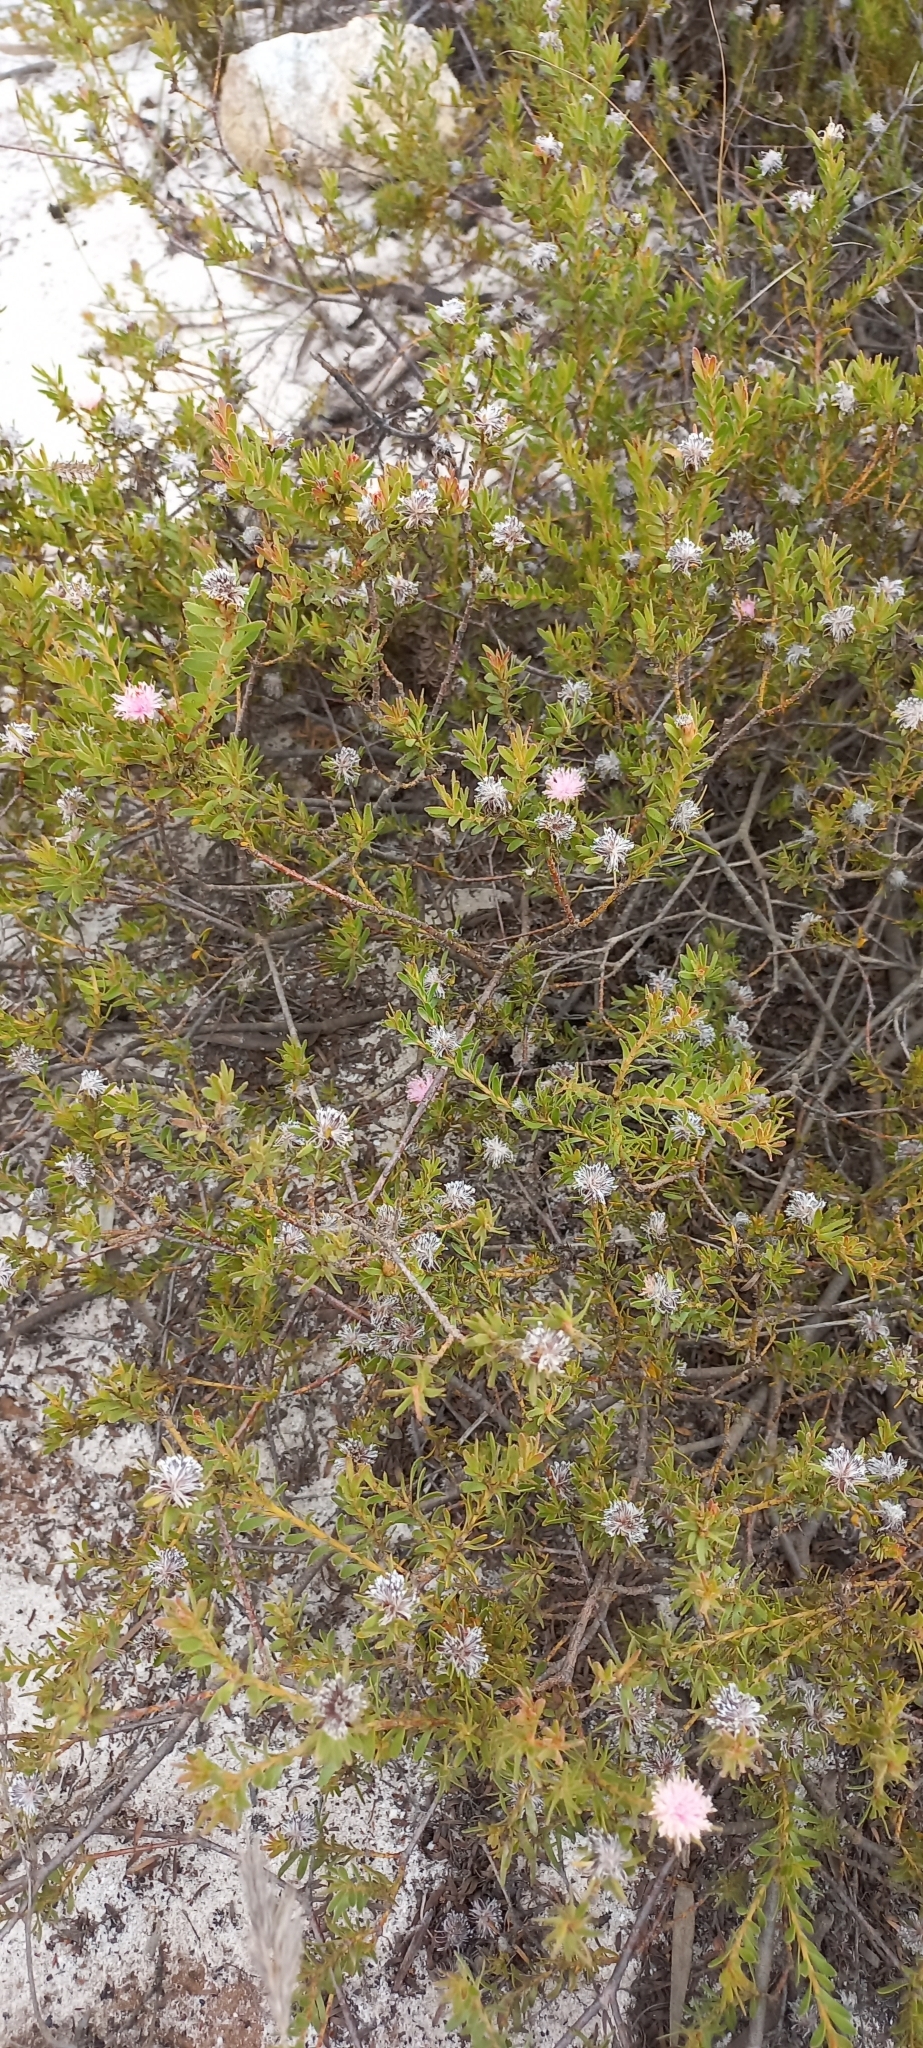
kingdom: Plantae
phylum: Tracheophyta
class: Magnoliopsida
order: Proteales
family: Proteaceae
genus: Diastella
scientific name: Diastella divaricata
